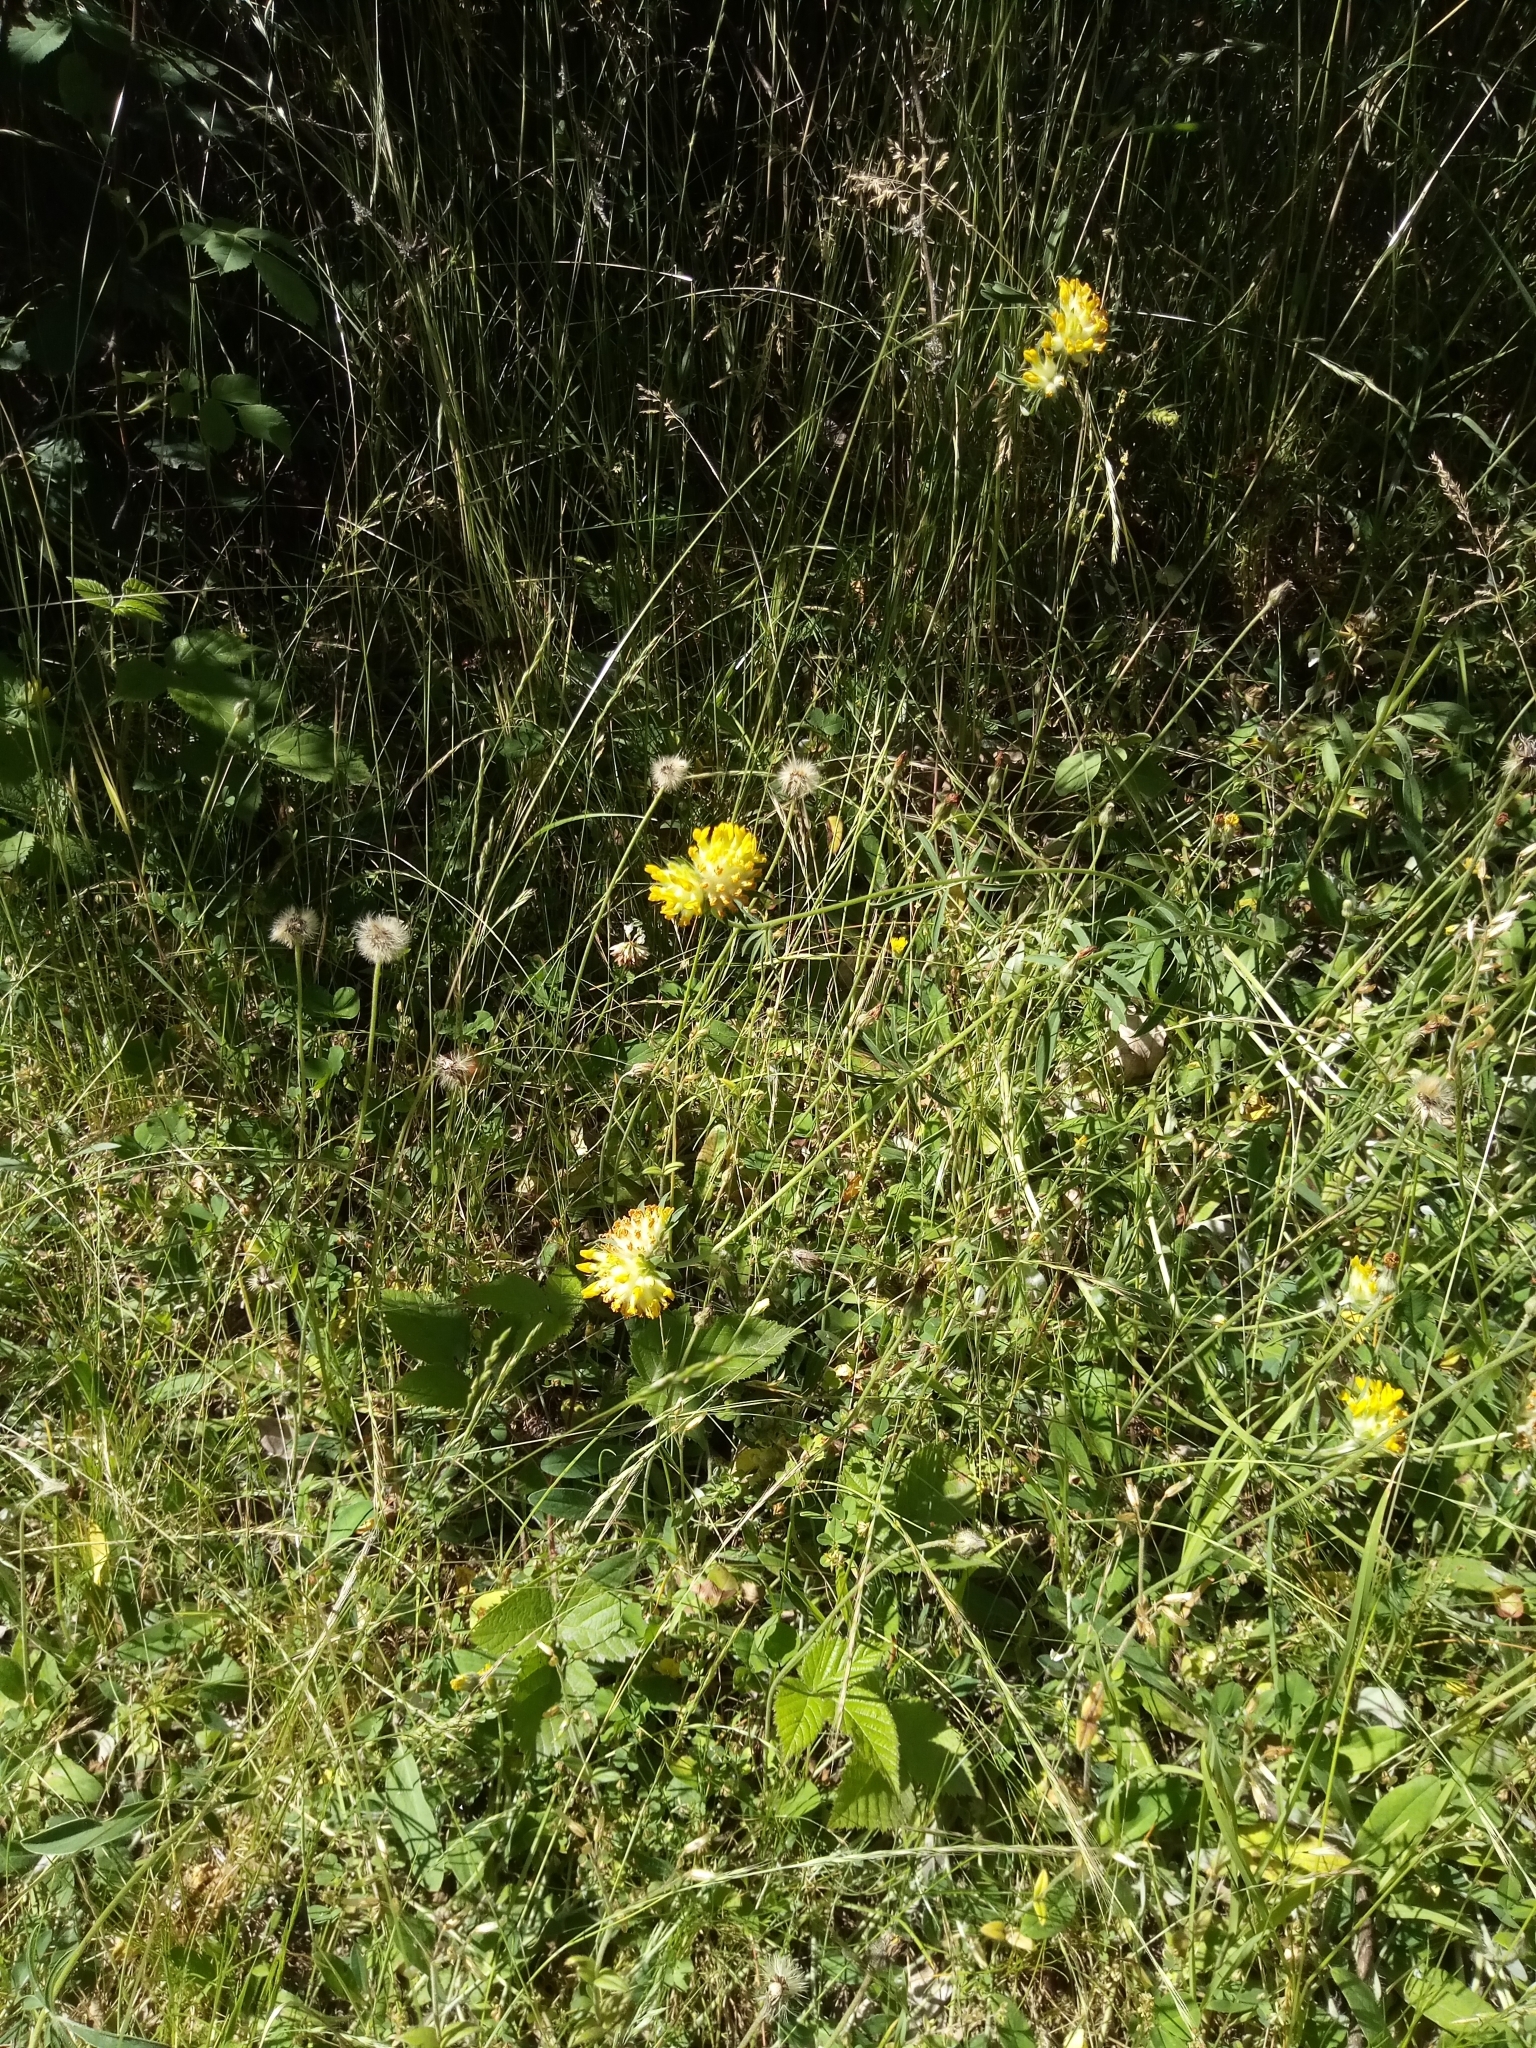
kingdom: Plantae
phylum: Tracheophyta
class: Magnoliopsida
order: Fabales
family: Fabaceae
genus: Anthyllis
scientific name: Anthyllis vulneraria
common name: Kidney vetch
